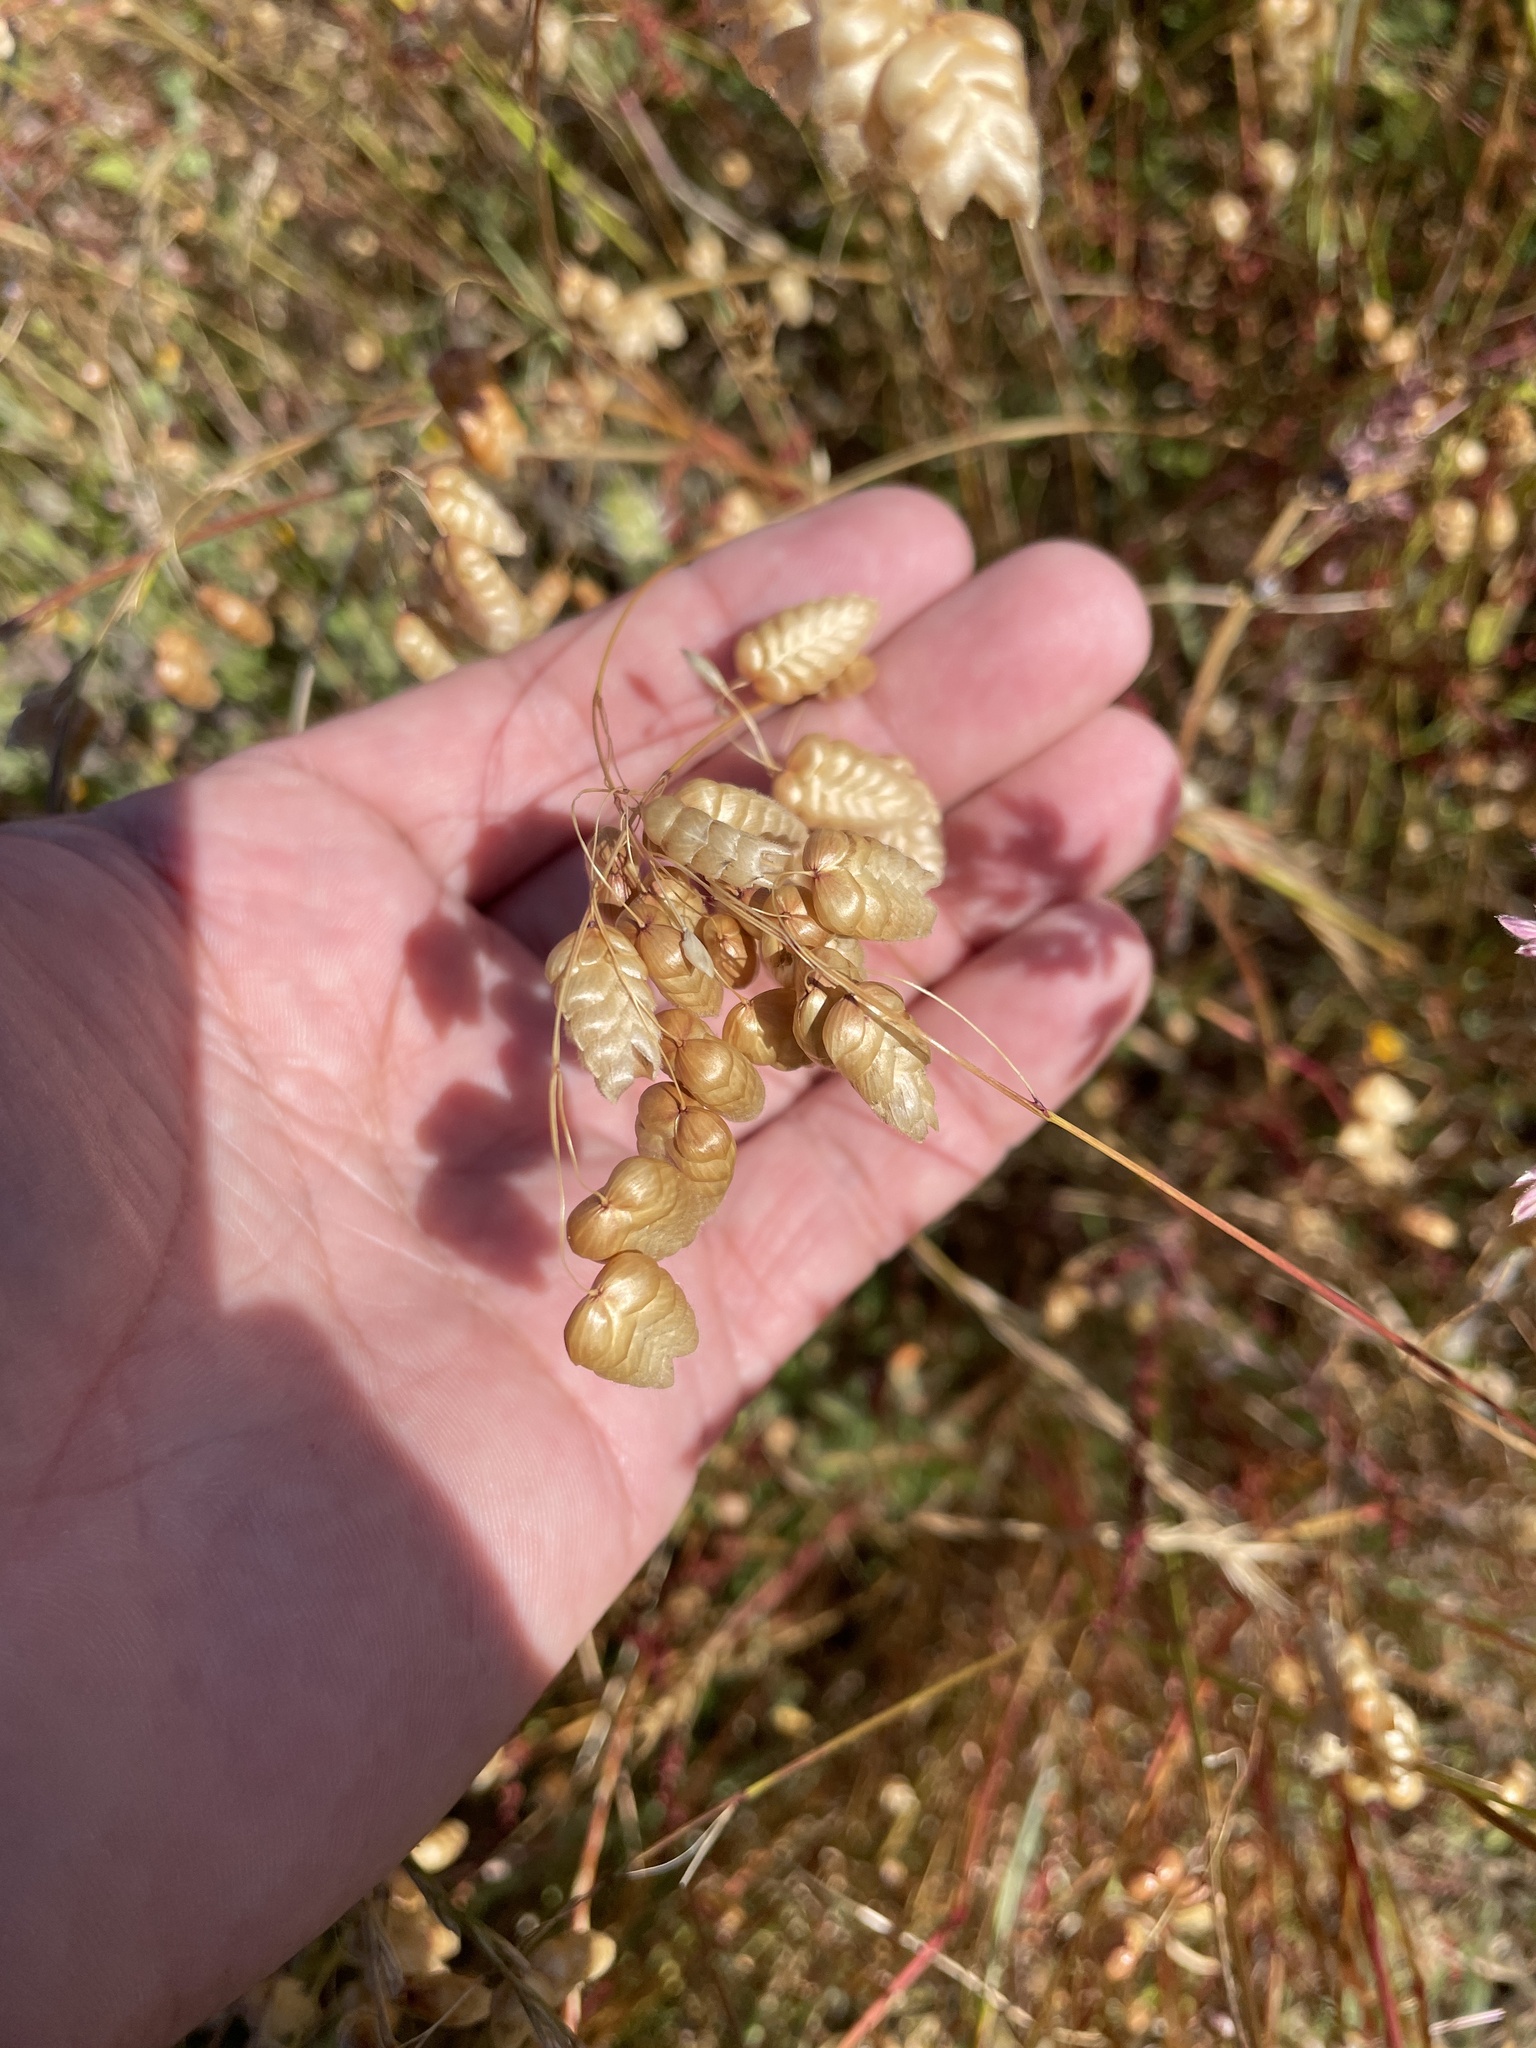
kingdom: Plantae
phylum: Tracheophyta
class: Liliopsida
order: Poales
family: Poaceae
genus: Briza
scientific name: Briza maxima
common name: Big quakinggrass
